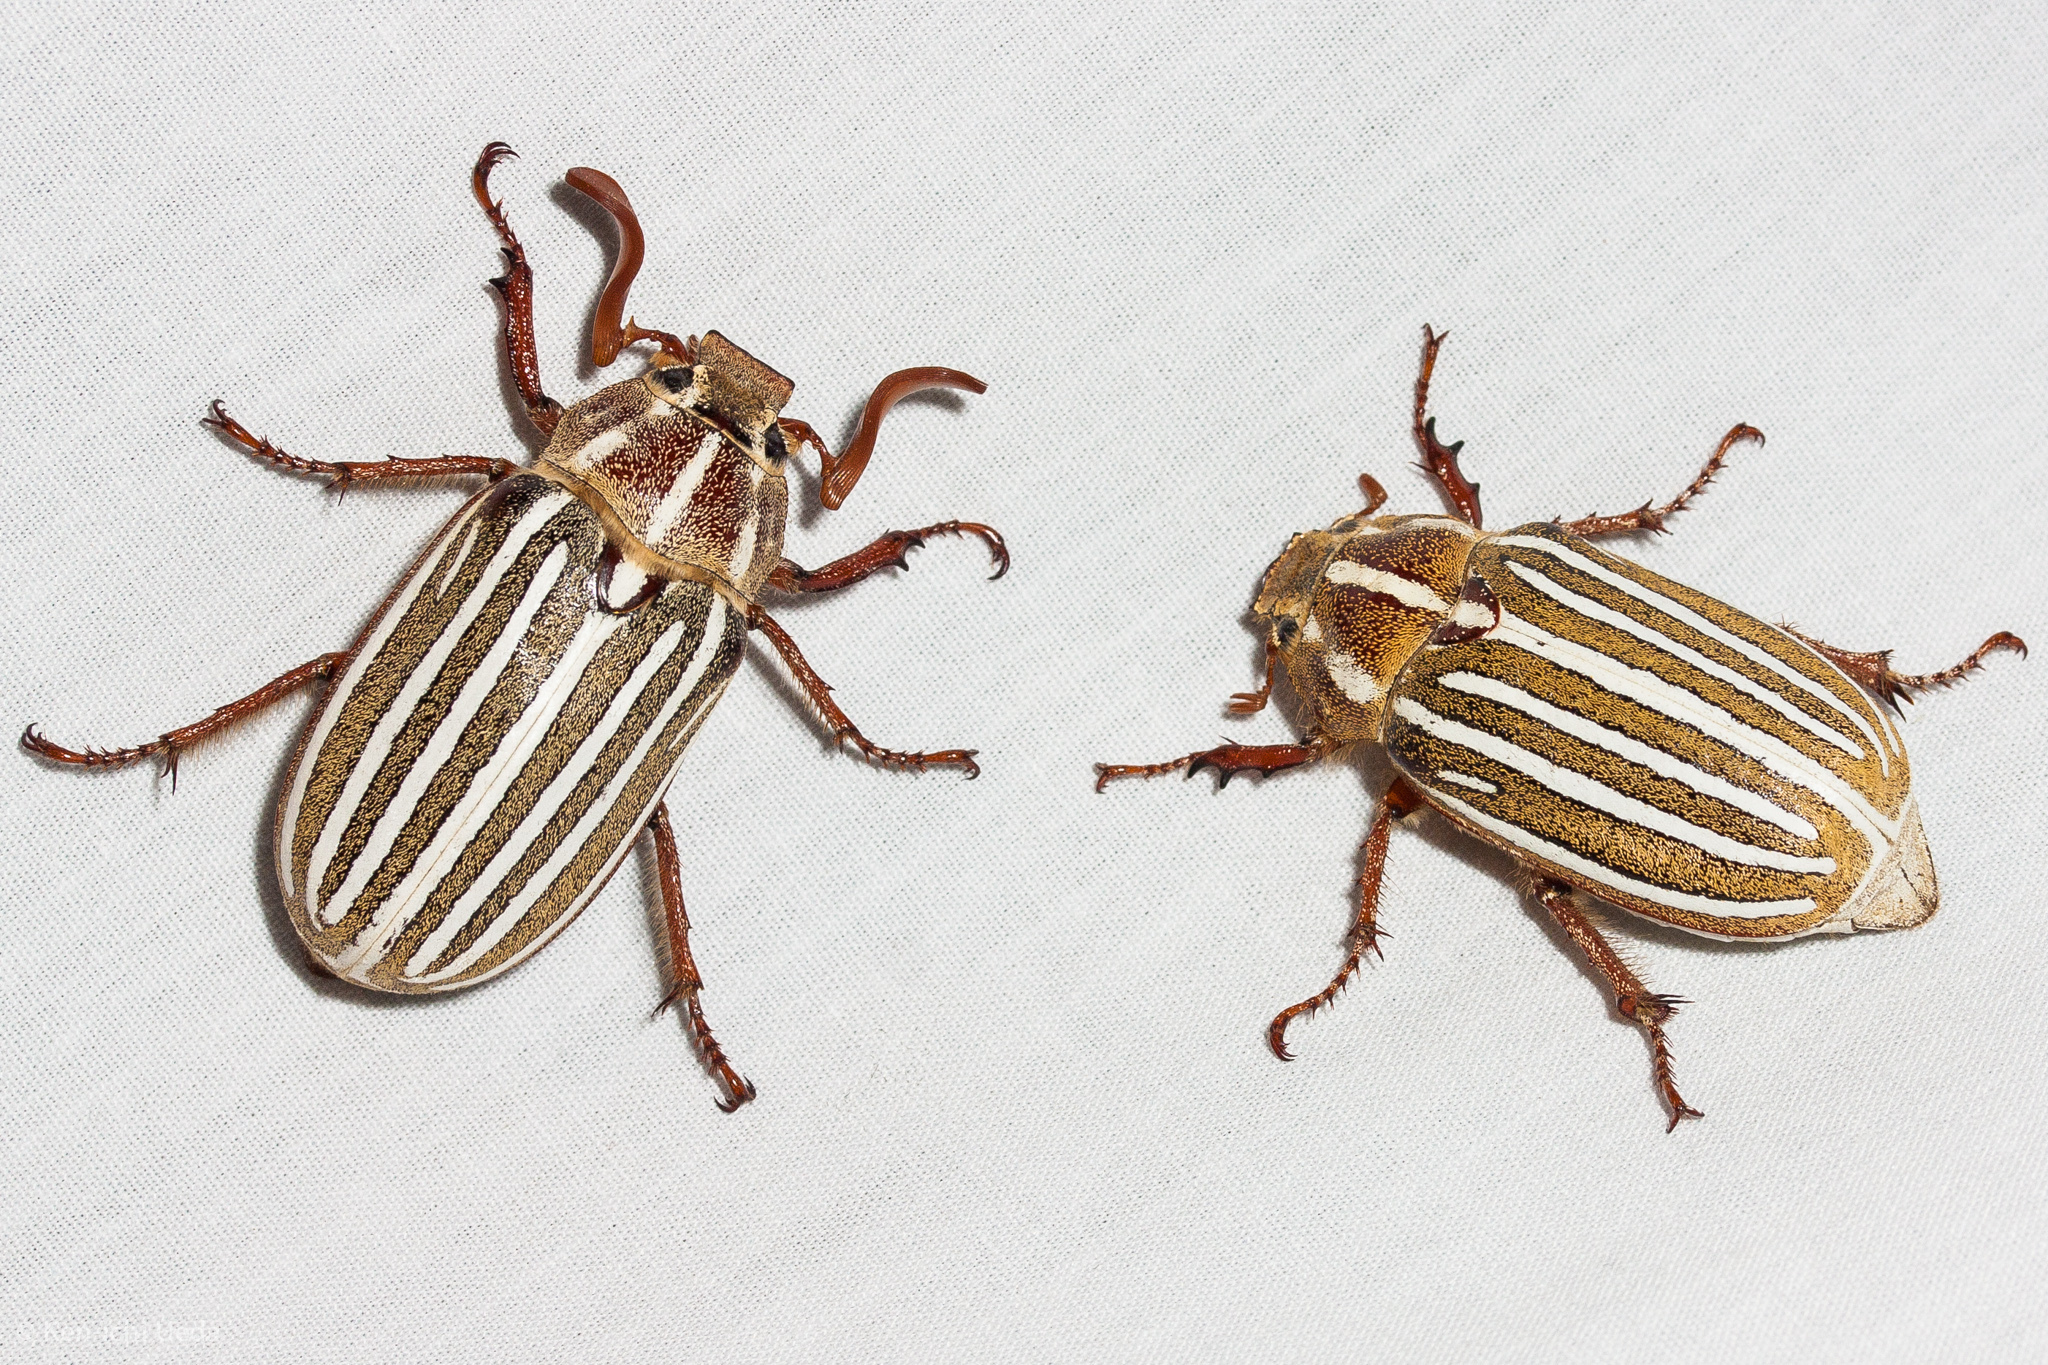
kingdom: Animalia
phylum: Arthropoda
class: Insecta
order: Coleoptera
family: Scarabaeidae
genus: Polyphylla
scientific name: Polyphylla decemlineata
